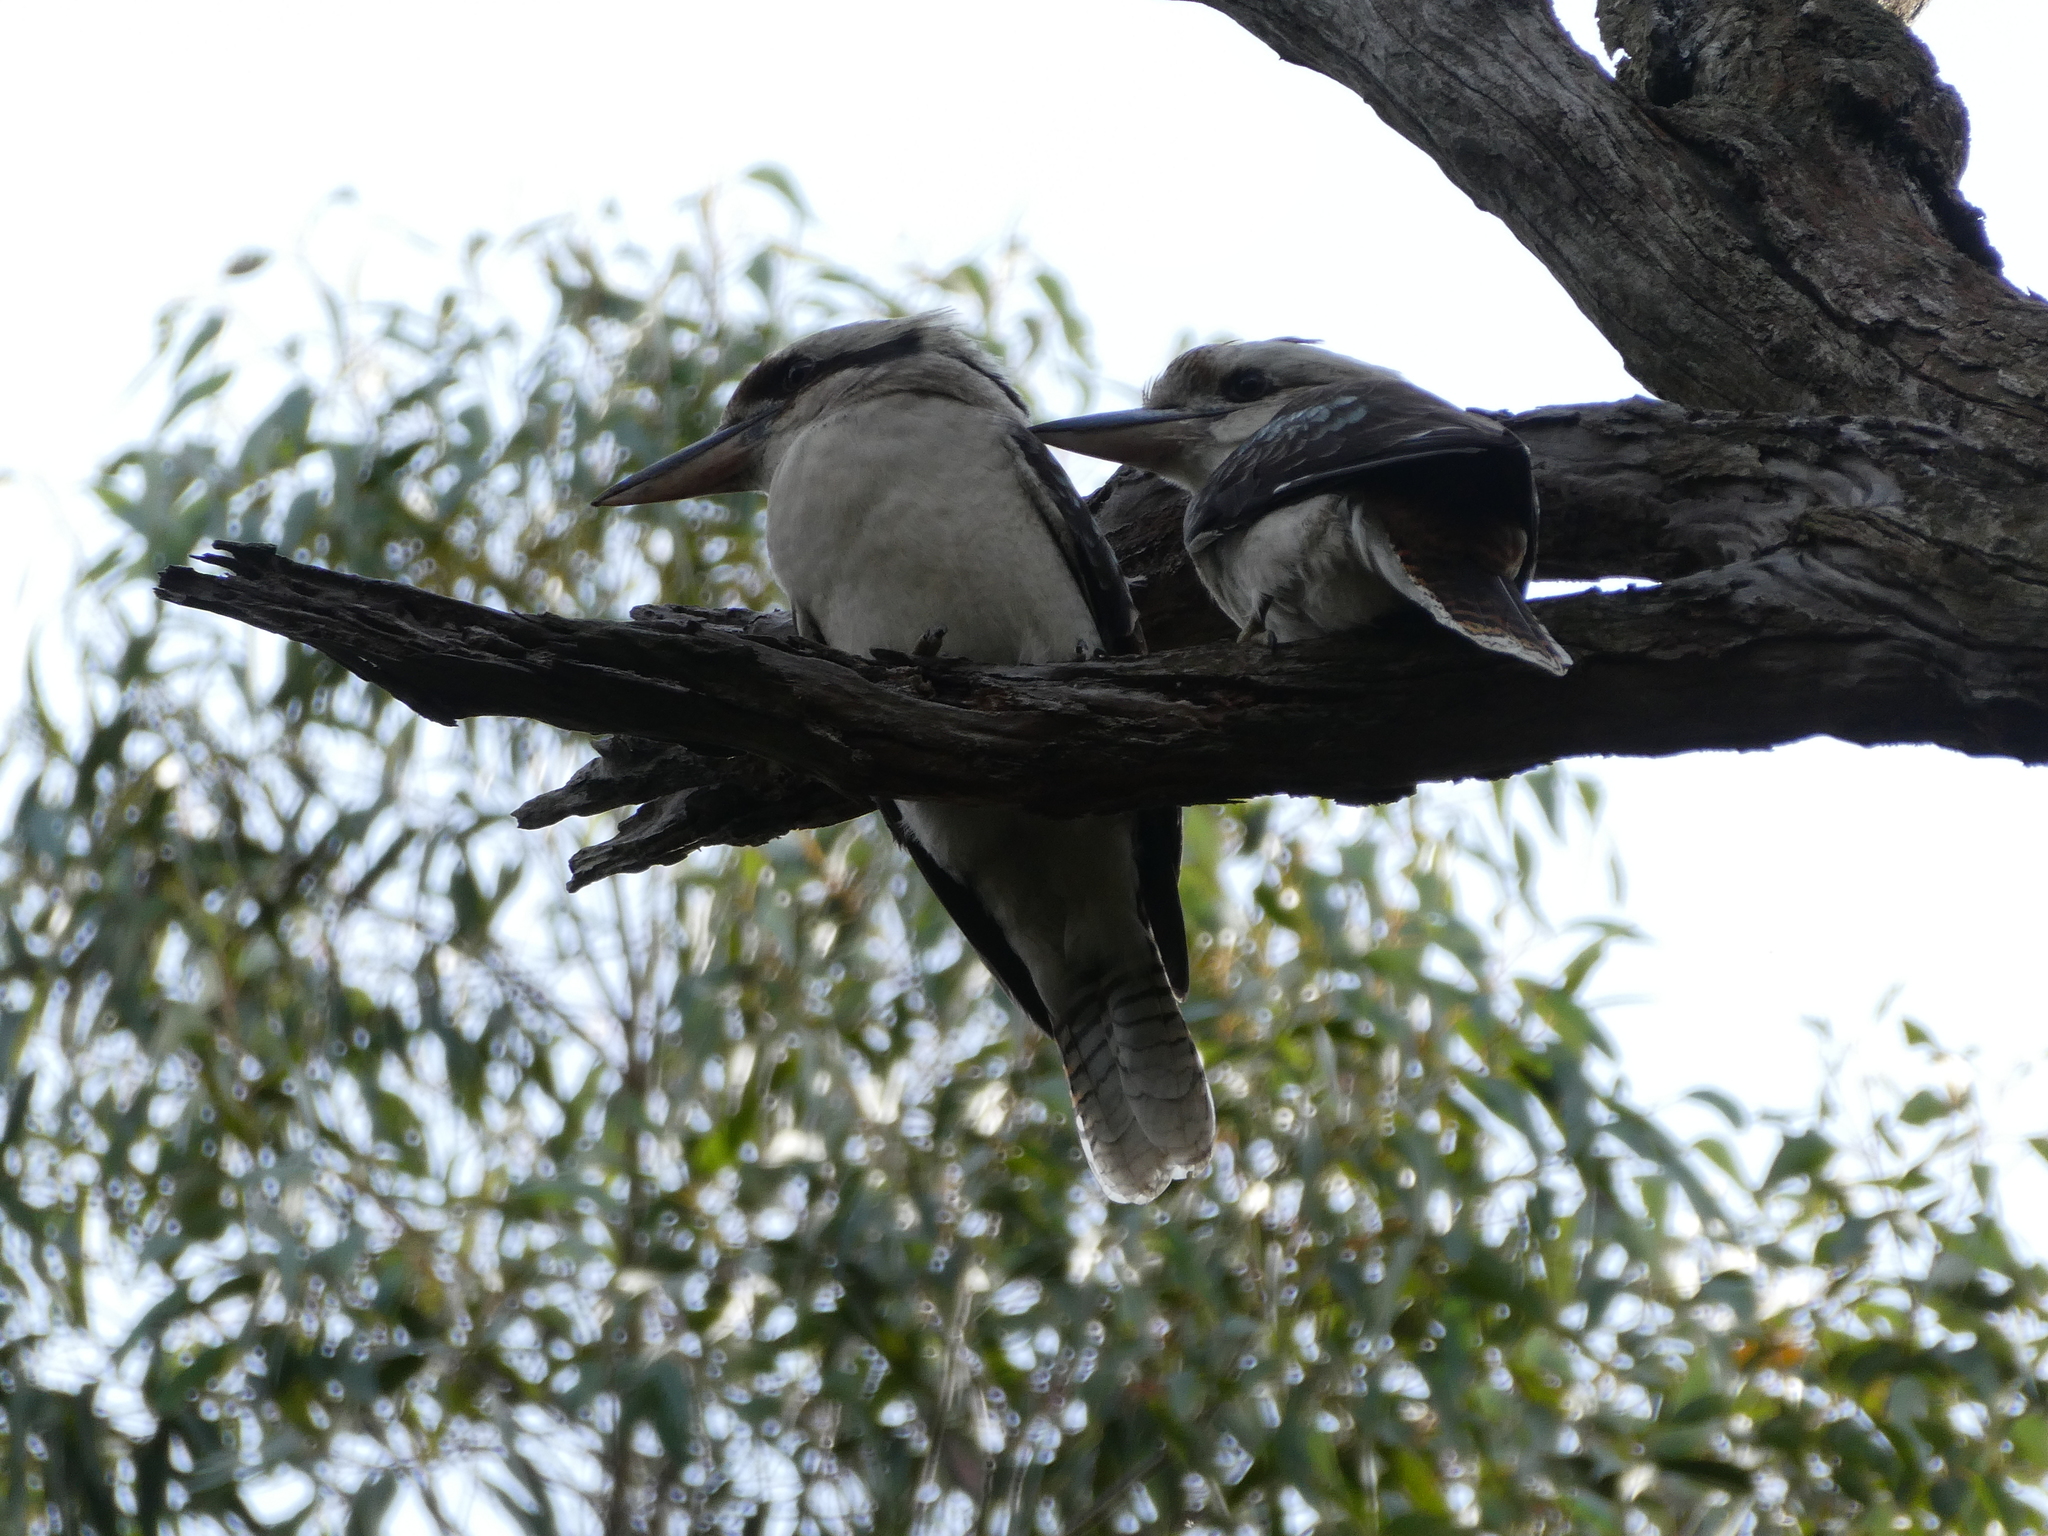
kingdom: Animalia
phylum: Chordata
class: Aves
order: Coraciiformes
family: Alcedinidae
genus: Dacelo
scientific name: Dacelo novaeguineae
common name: Laughing kookaburra
